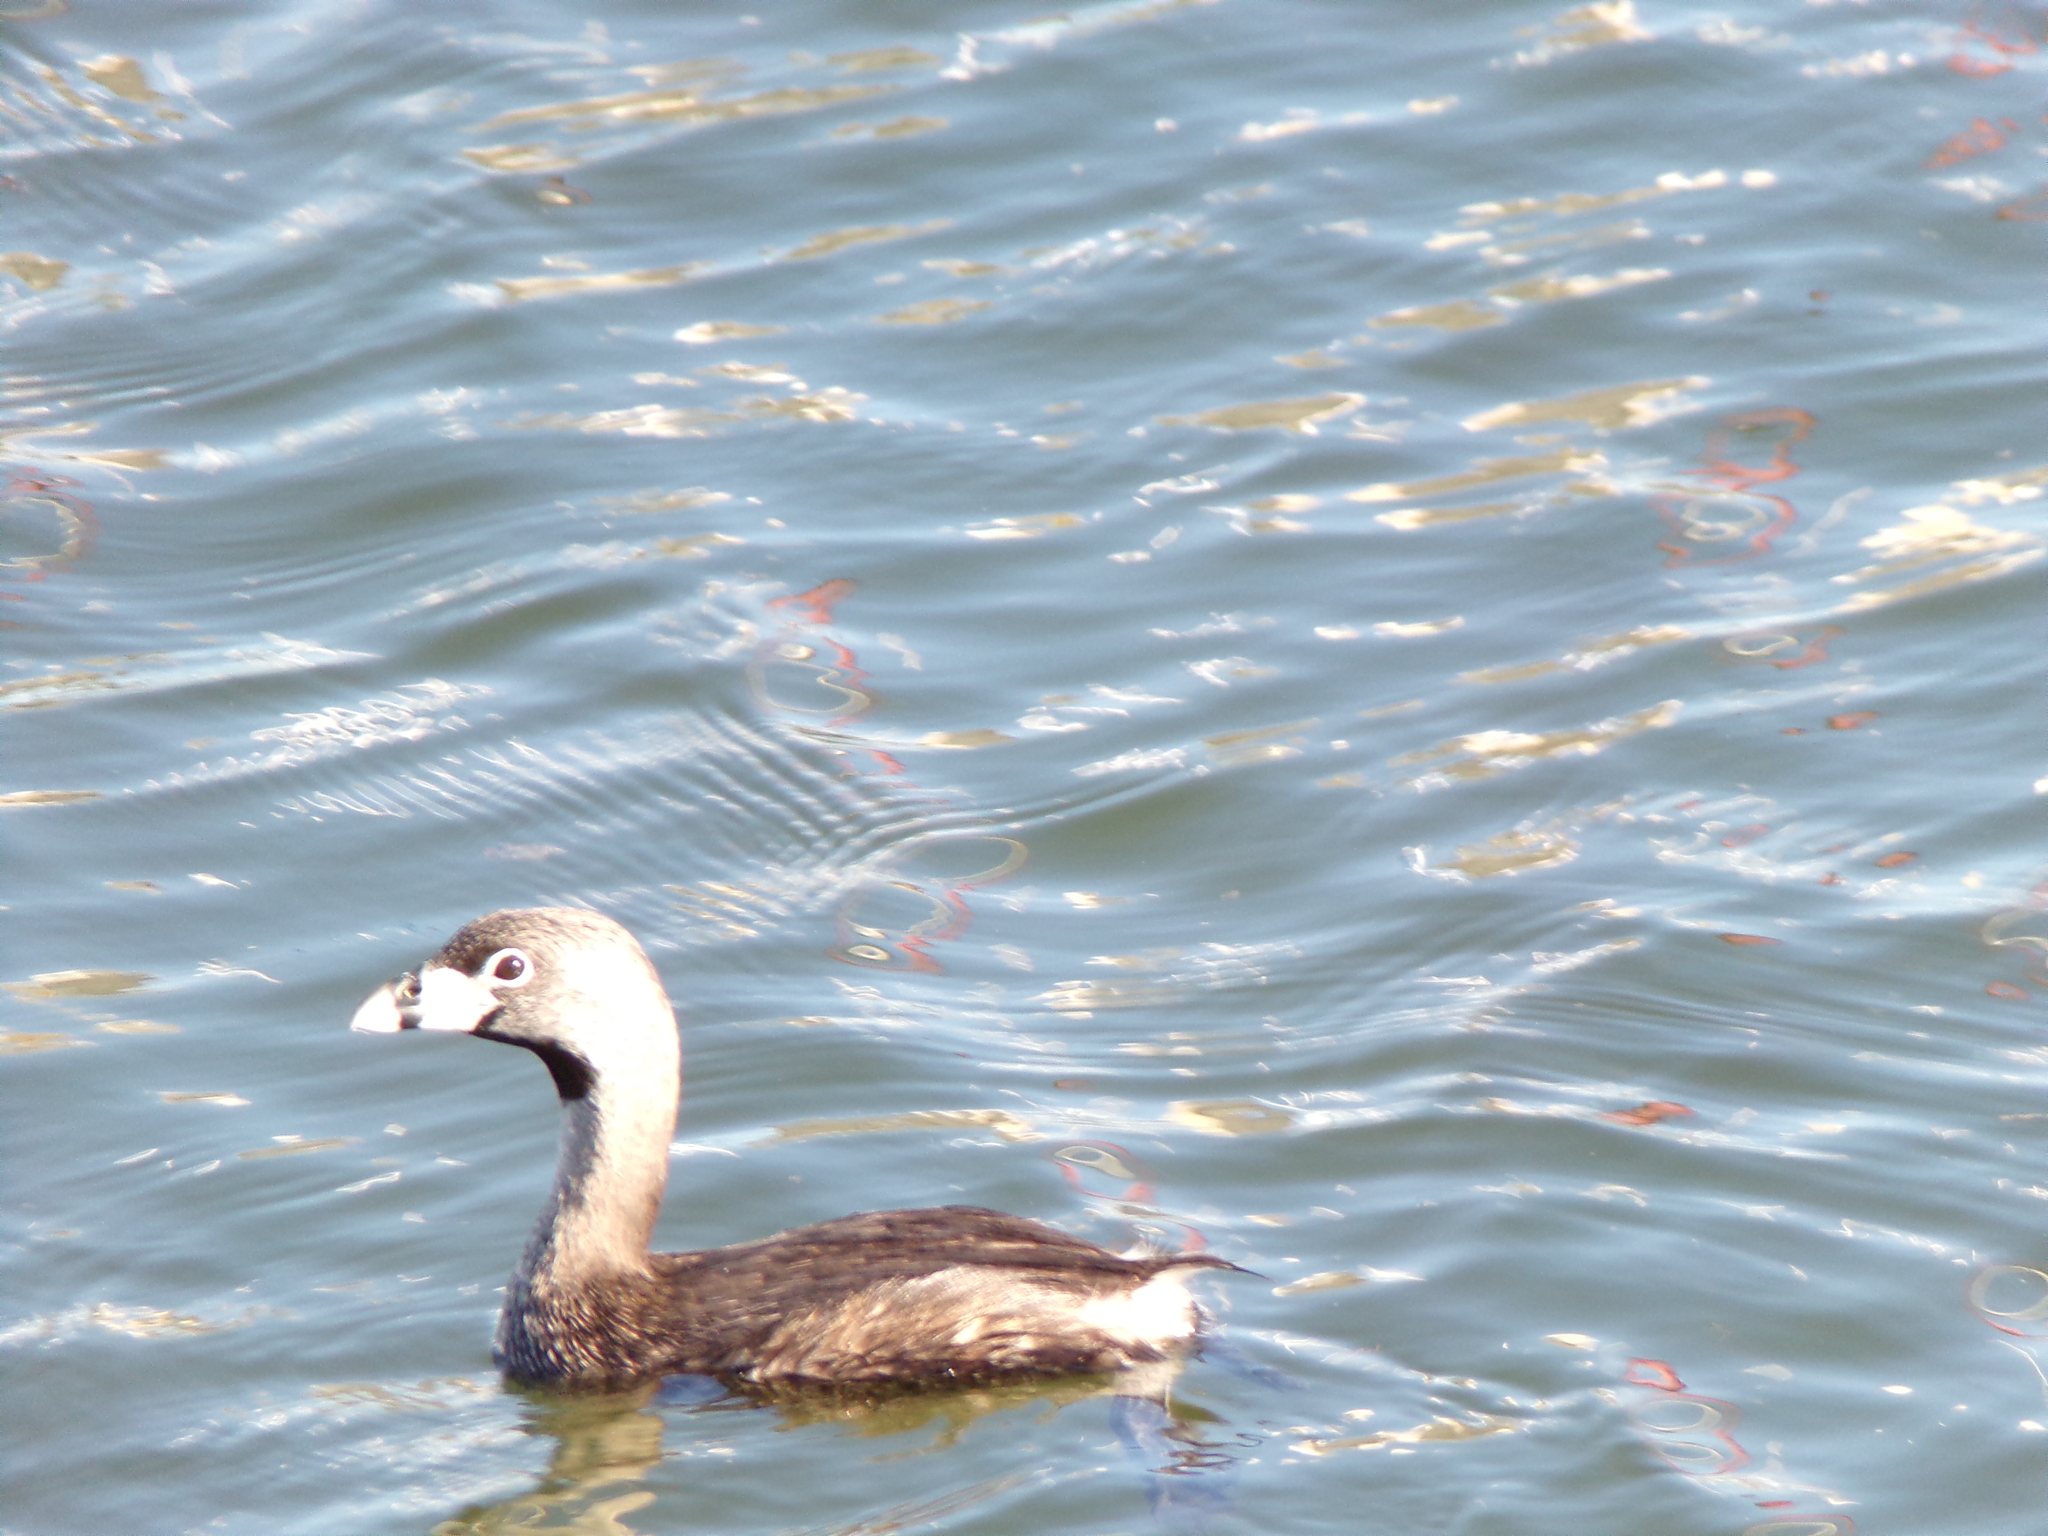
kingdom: Animalia
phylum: Chordata
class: Aves
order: Podicipediformes
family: Podicipedidae
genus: Podilymbus
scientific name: Podilymbus podiceps
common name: Pied-billed grebe
